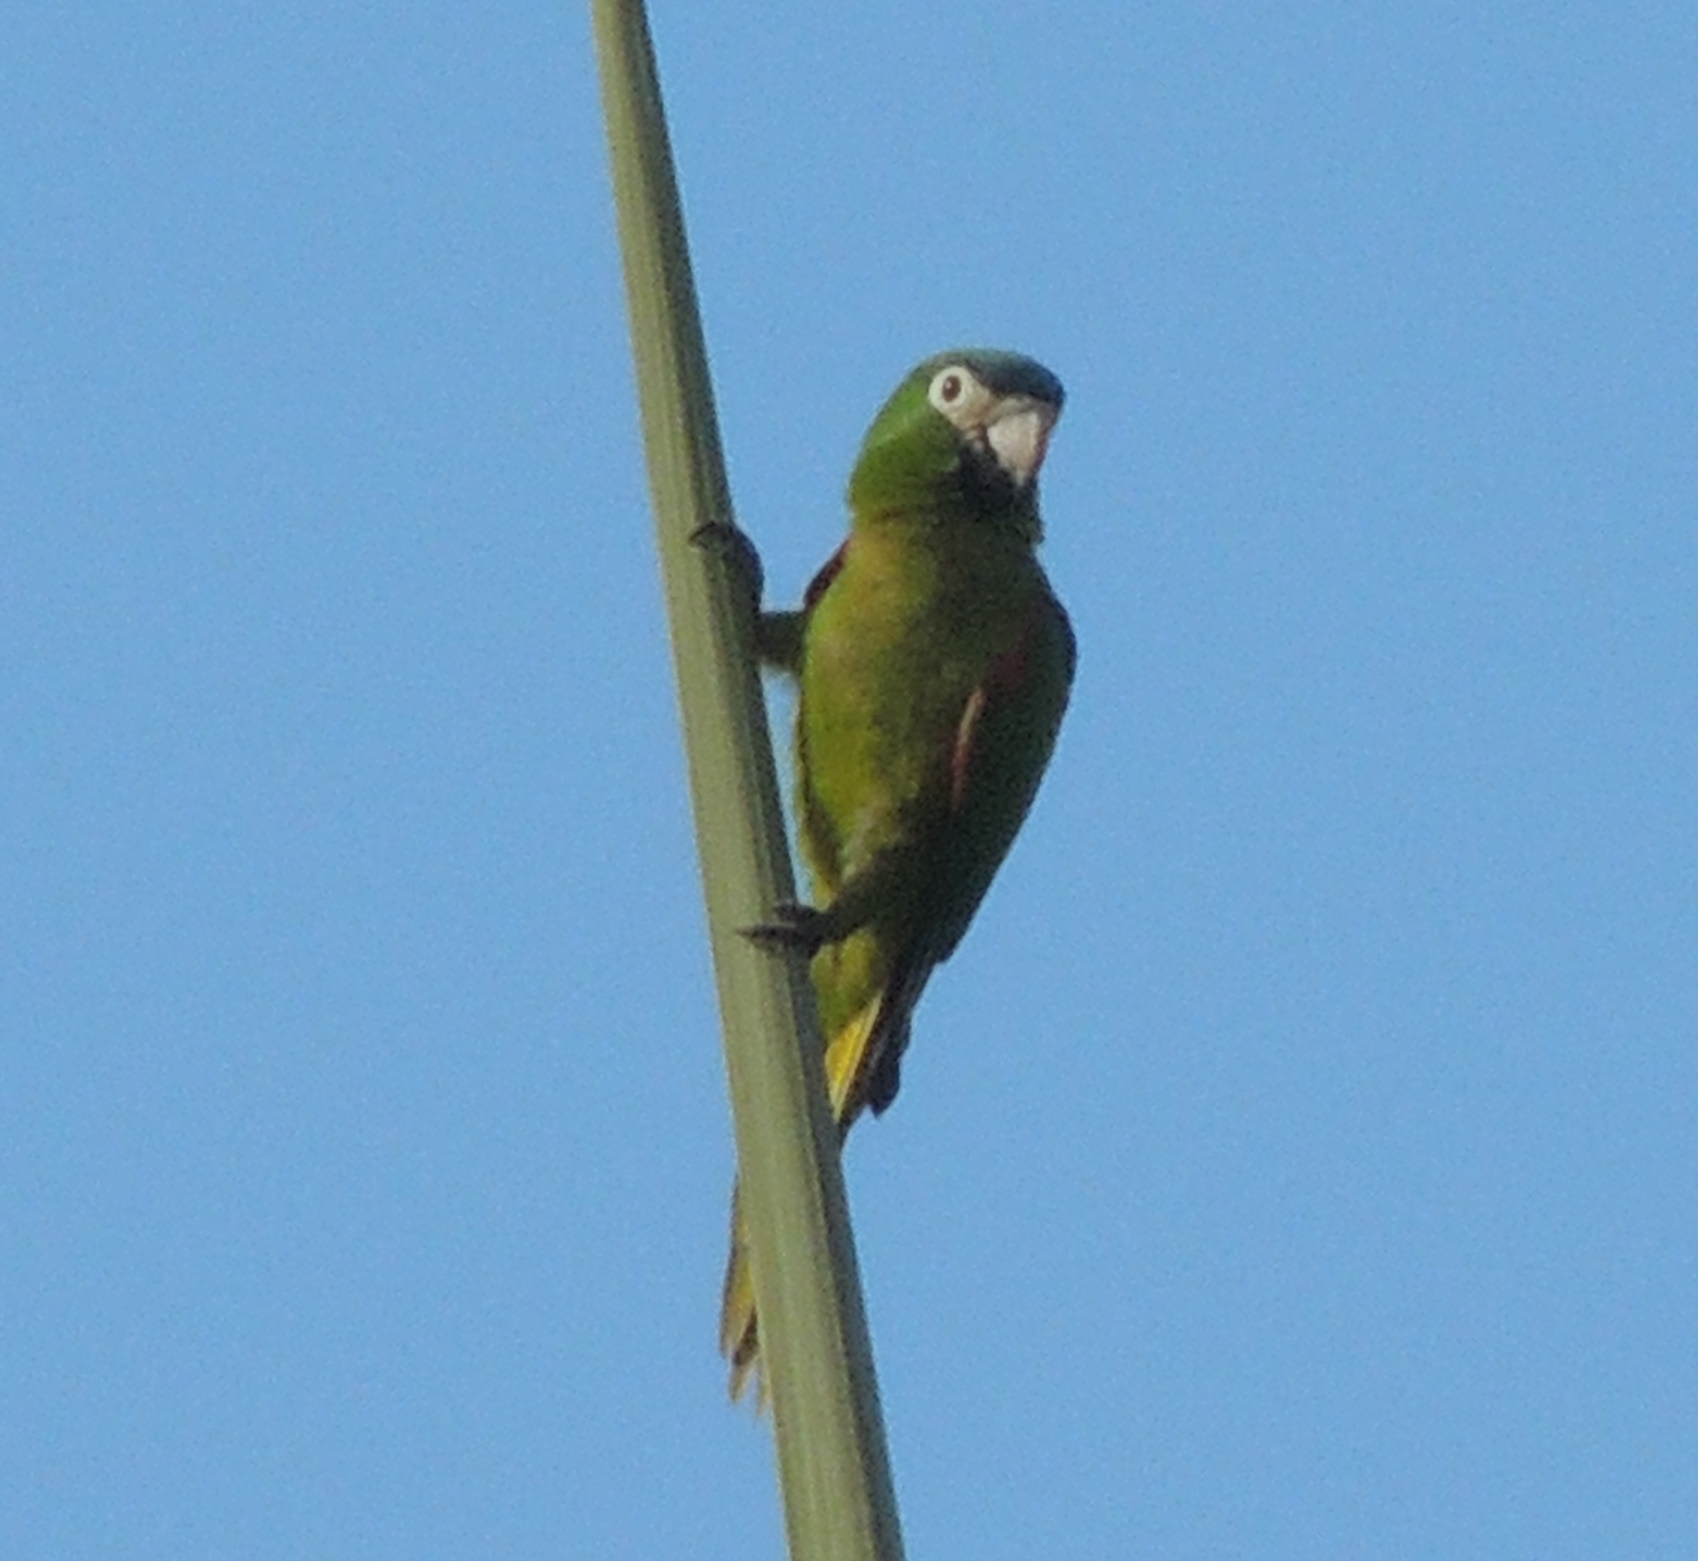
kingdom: Animalia
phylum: Chordata
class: Aves
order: Psittaciformes
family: Psittacidae
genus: Diopsittaca
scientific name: Diopsittaca nobilis
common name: Red-shouldered macaw
